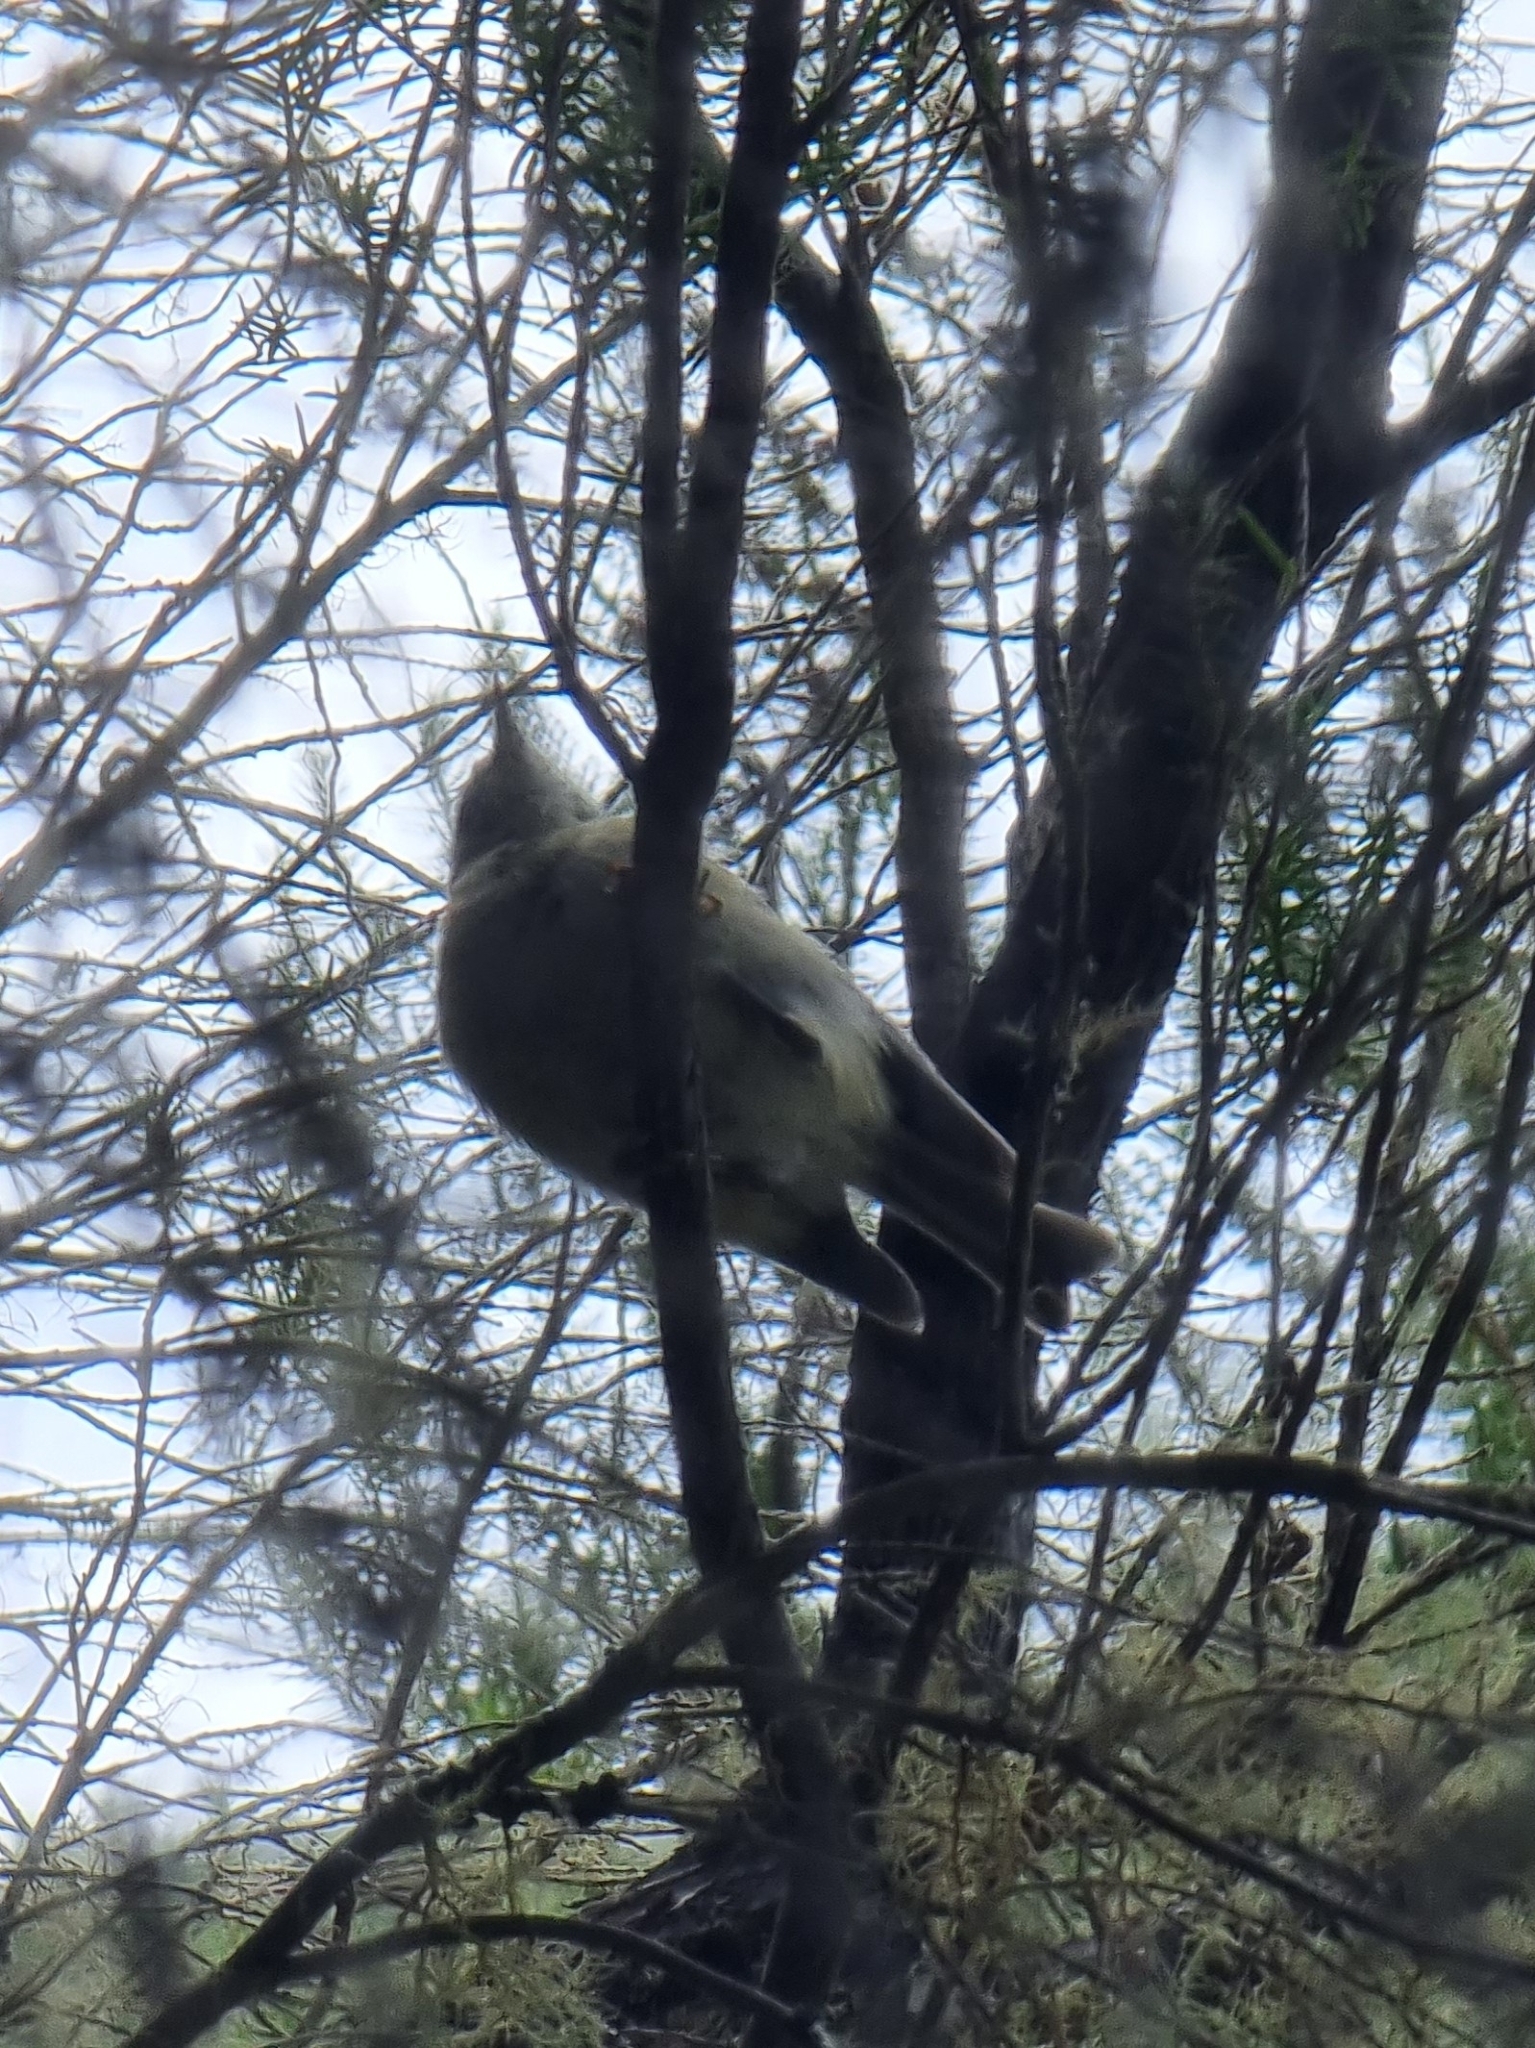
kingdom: Animalia
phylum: Chordata
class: Aves
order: Passeriformes
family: Regulidae
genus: Regulus
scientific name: Regulus madeirensis
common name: Madeira firecrest
